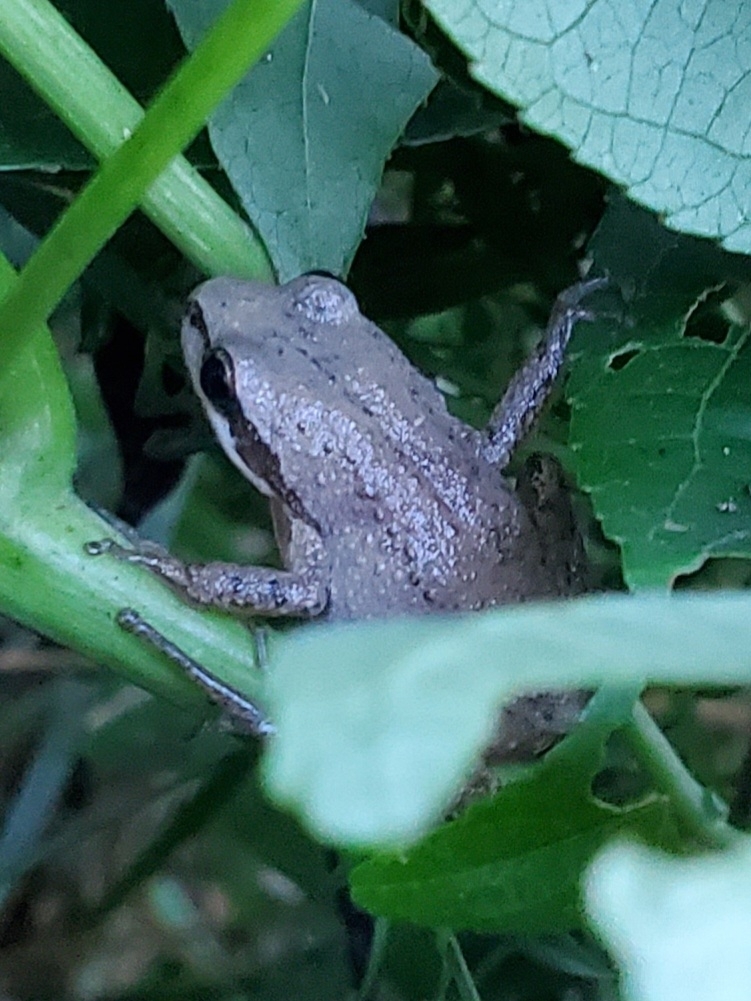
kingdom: Animalia
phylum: Chordata
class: Amphibia
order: Anura
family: Hylidae
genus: Pseudacris
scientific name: Pseudacris feriarum
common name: Upland chorus frog
